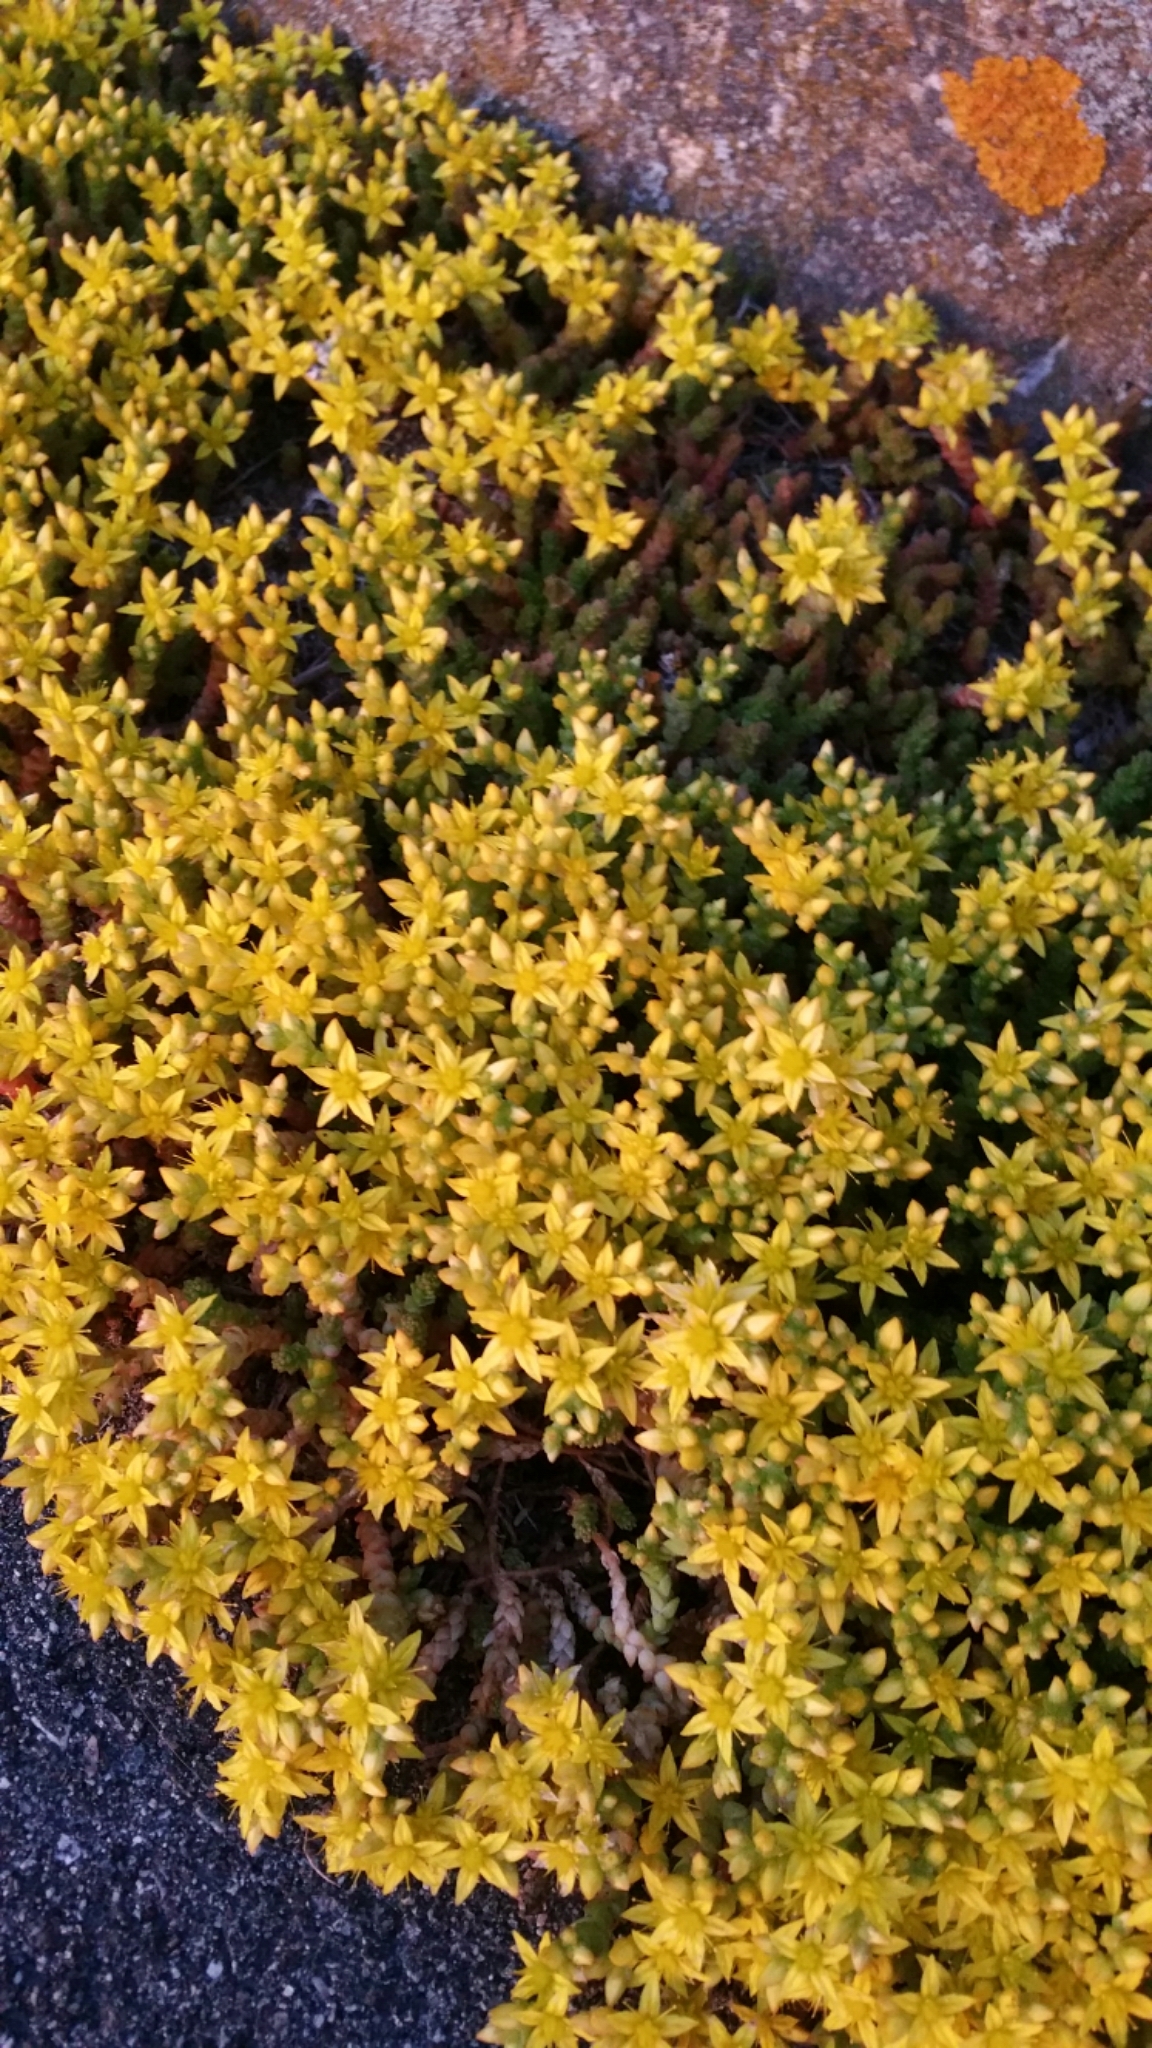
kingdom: Plantae
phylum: Tracheophyta
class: Magnoliopsida
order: Saxifragales
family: Crassulaceae
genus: Sedum
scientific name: Sedum acre
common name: Biting stonecrop
